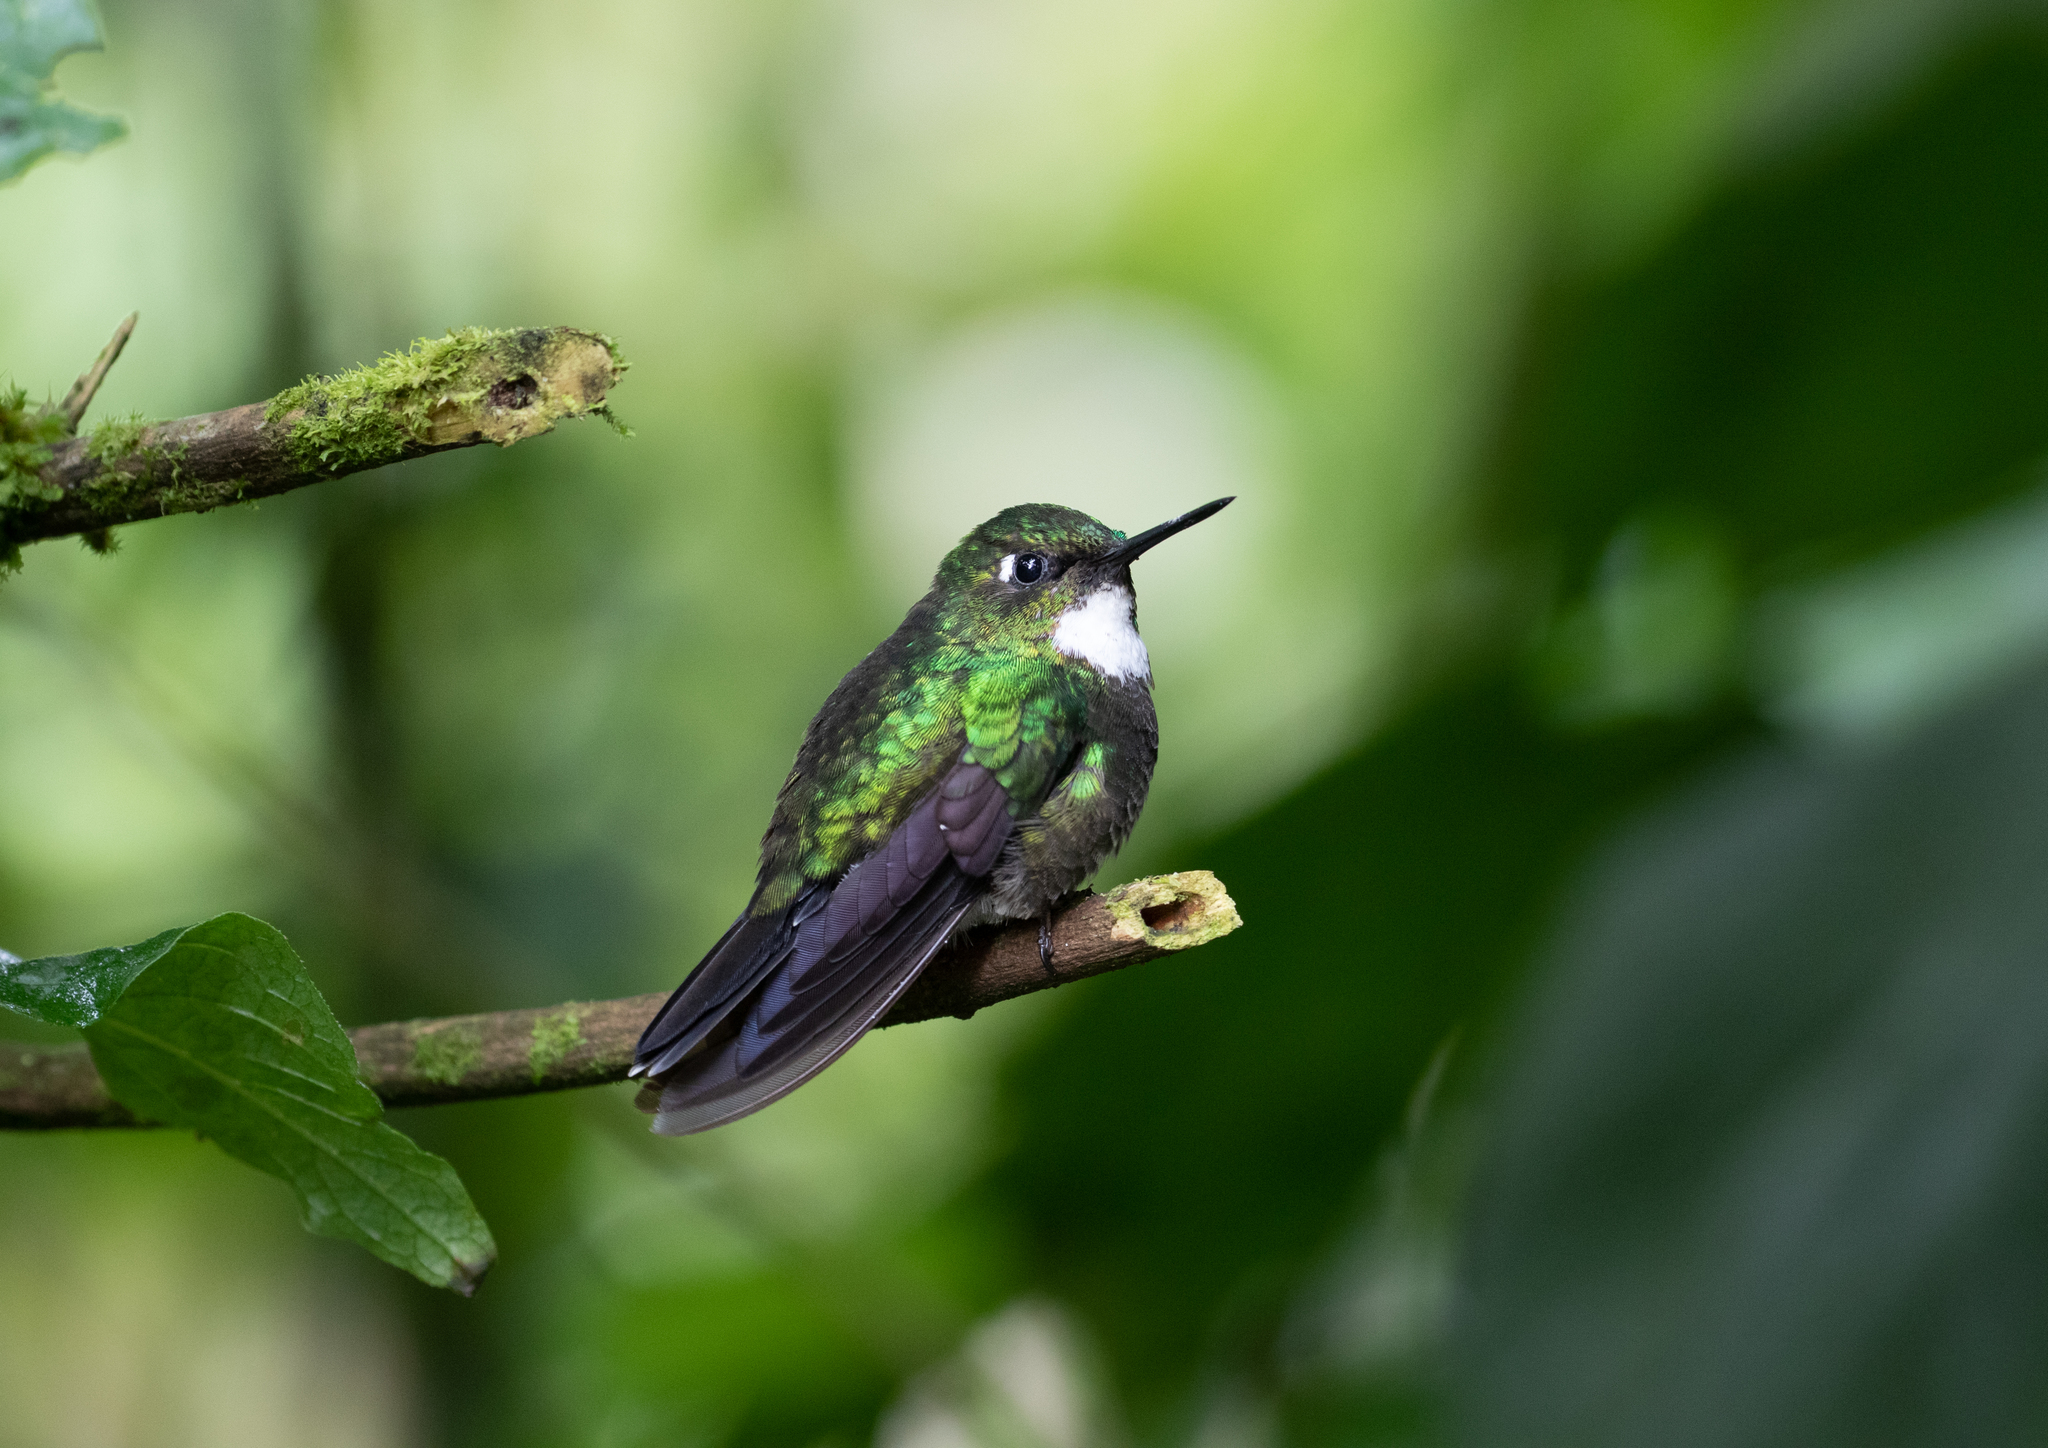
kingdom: Animalia
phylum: Chordata
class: Aves
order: Apodiformes
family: Trochilidae
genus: Heliangelus
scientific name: Heliangelus exortis
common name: Tourmaline sunangel
